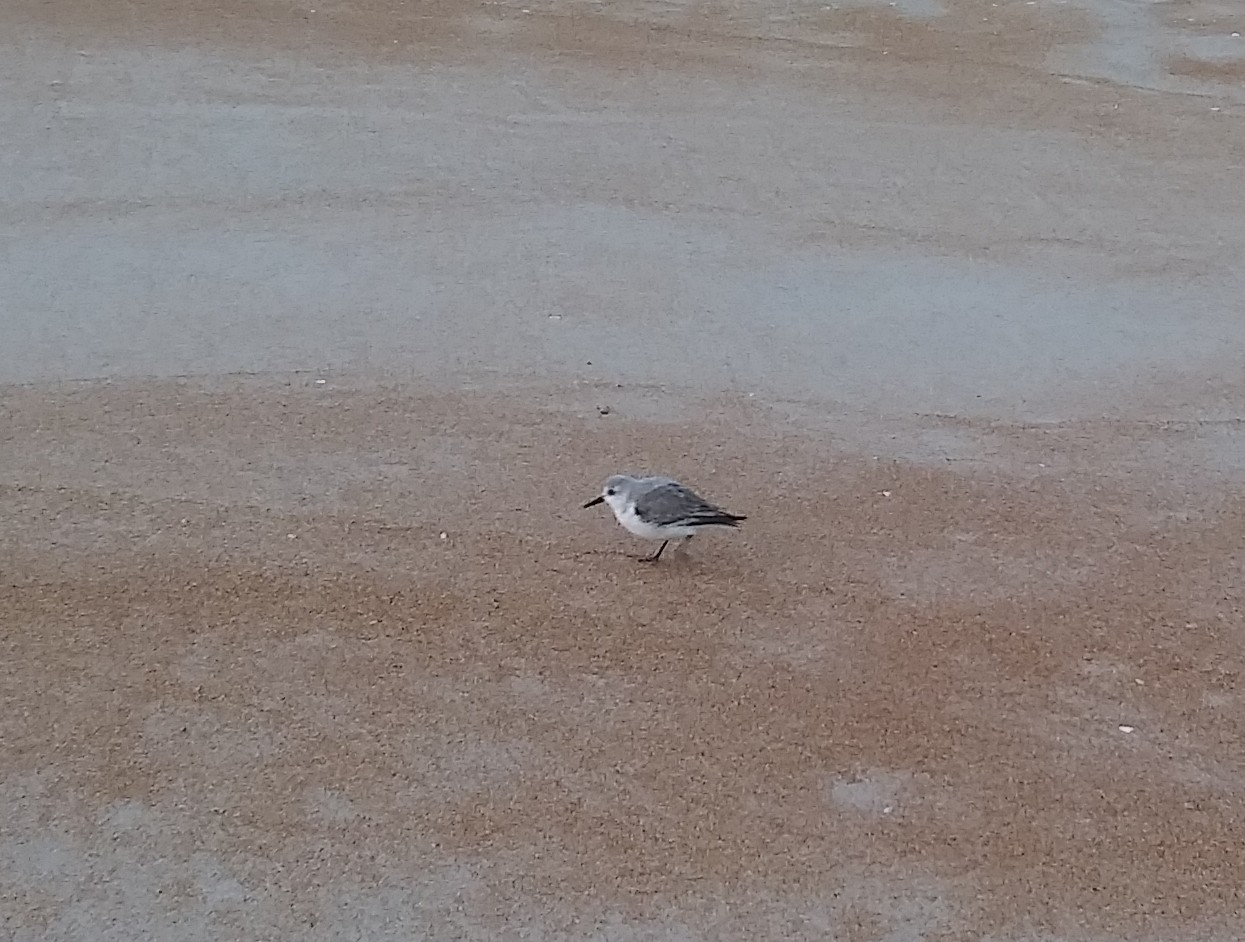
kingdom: Animalia
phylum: Chordata
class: Aves
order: Charadriiformes
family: Scolopacidae
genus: Calidris
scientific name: Calidris alba
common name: Sanderling
